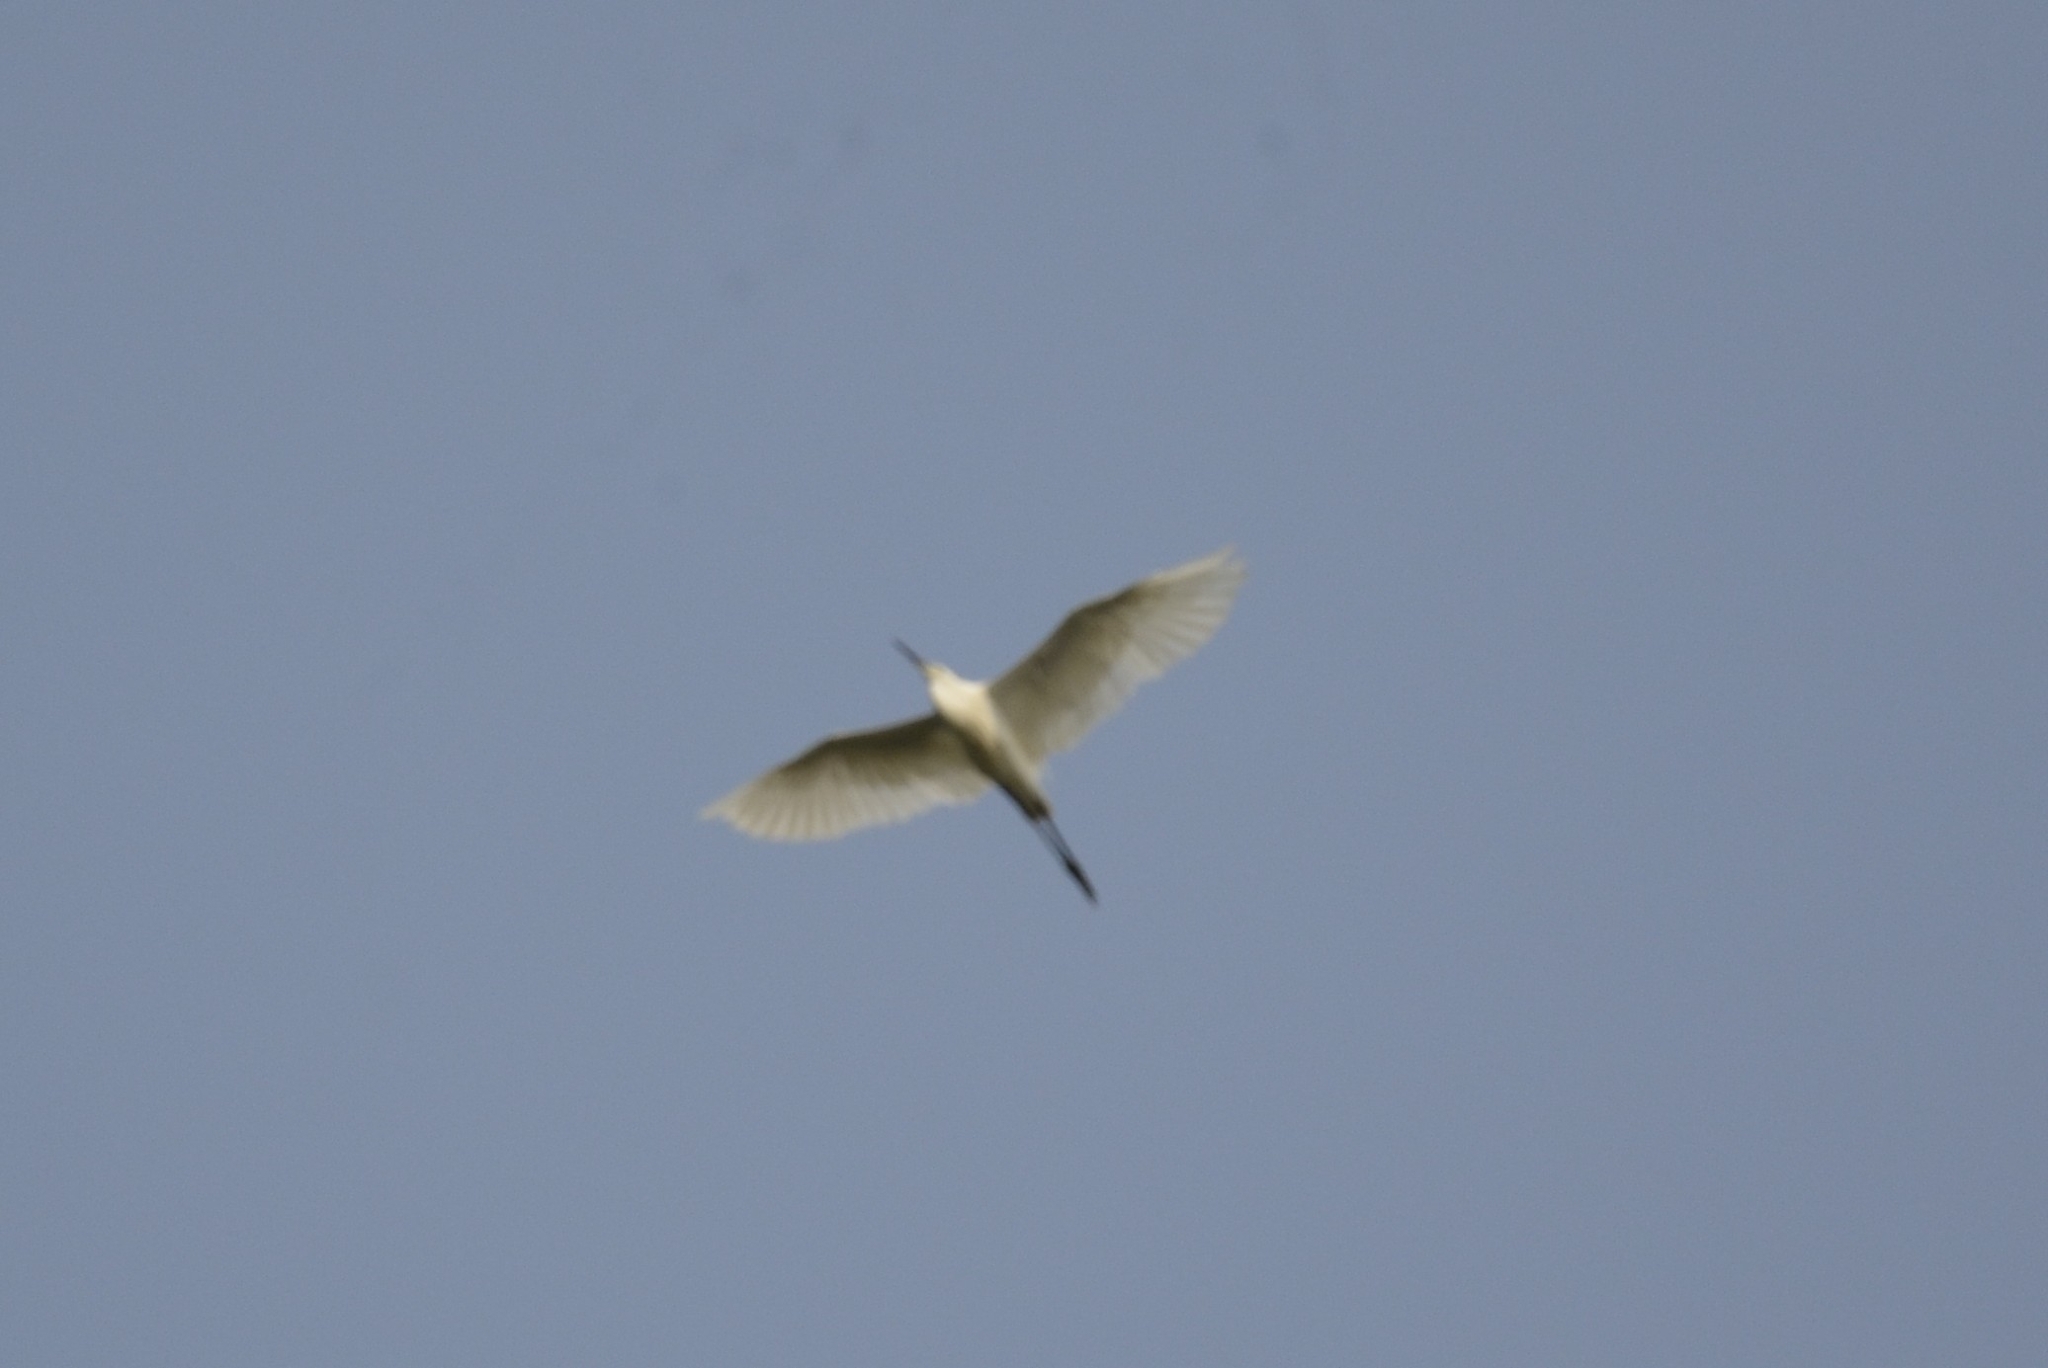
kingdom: Animalia
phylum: Chordata
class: Aves
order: Pelecaniformes
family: Ardeidae
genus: Egretta
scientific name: Egretta garzetta
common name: Little egret
